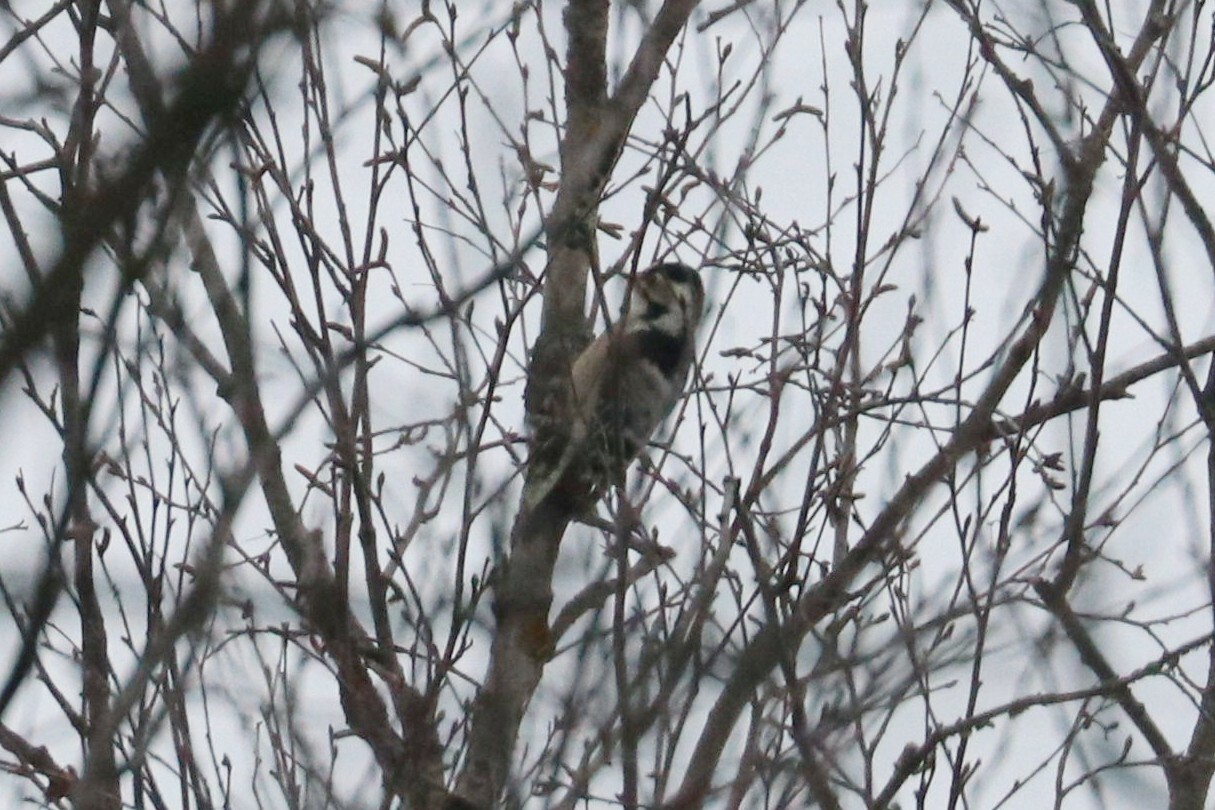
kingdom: Animalia
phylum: Chordata
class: Aves
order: Piciformes
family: Picidae
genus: Dryobates
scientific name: Dryobates minor
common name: Lesser spotted woodpecker
